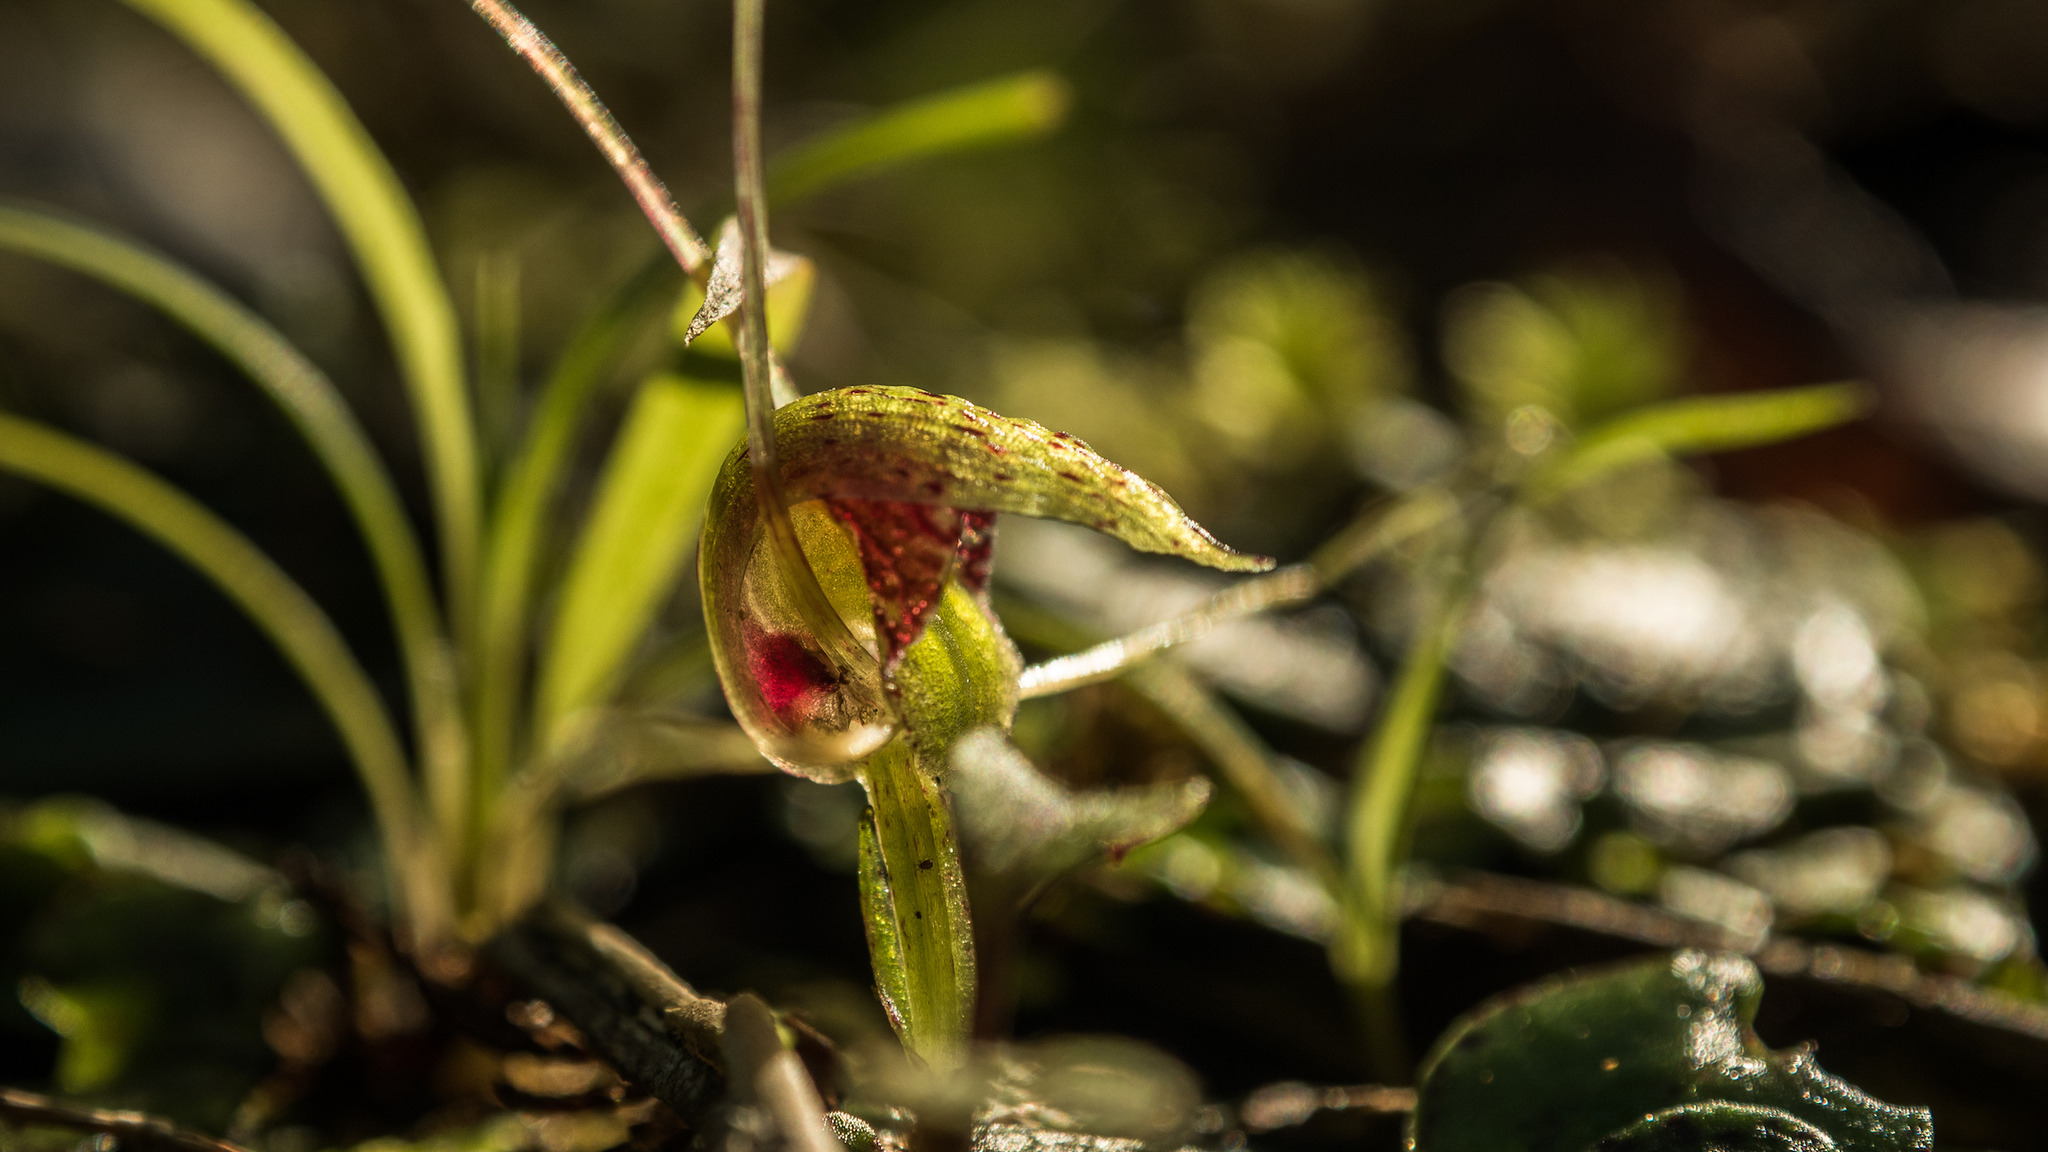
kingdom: Plantae
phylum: Tracheophyta
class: Liliopsida
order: Asparagales
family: Orchidaceae
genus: Corybas
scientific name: Corybas rivularis
